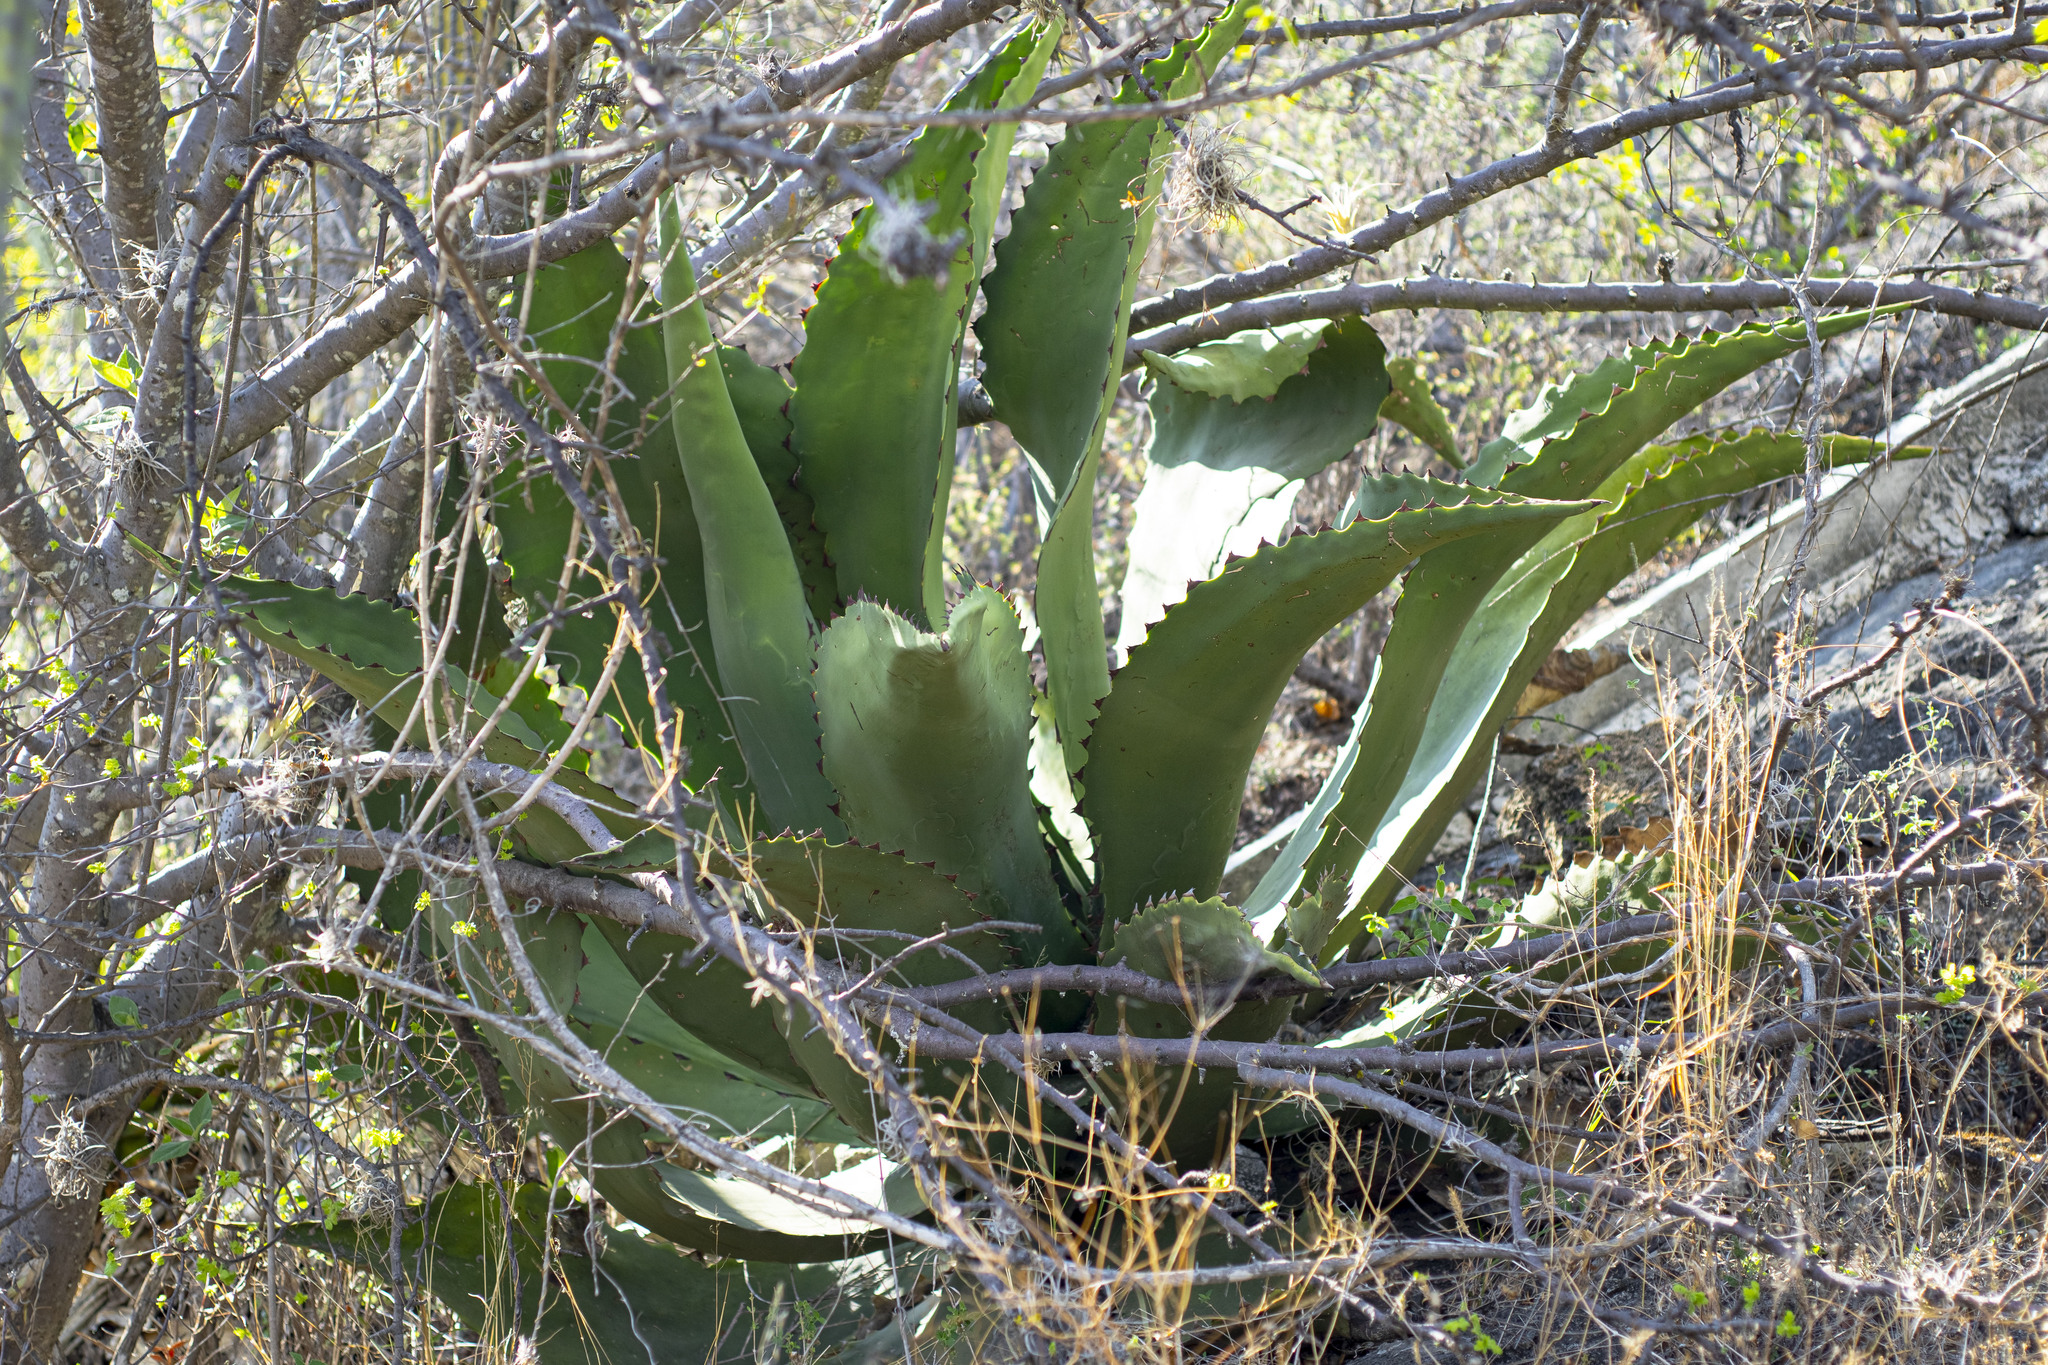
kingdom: Plantae
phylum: Tracheophyta
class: Liliopsida
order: Asparagales
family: Asparagaceae
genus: Agave
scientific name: Agave marmorata
